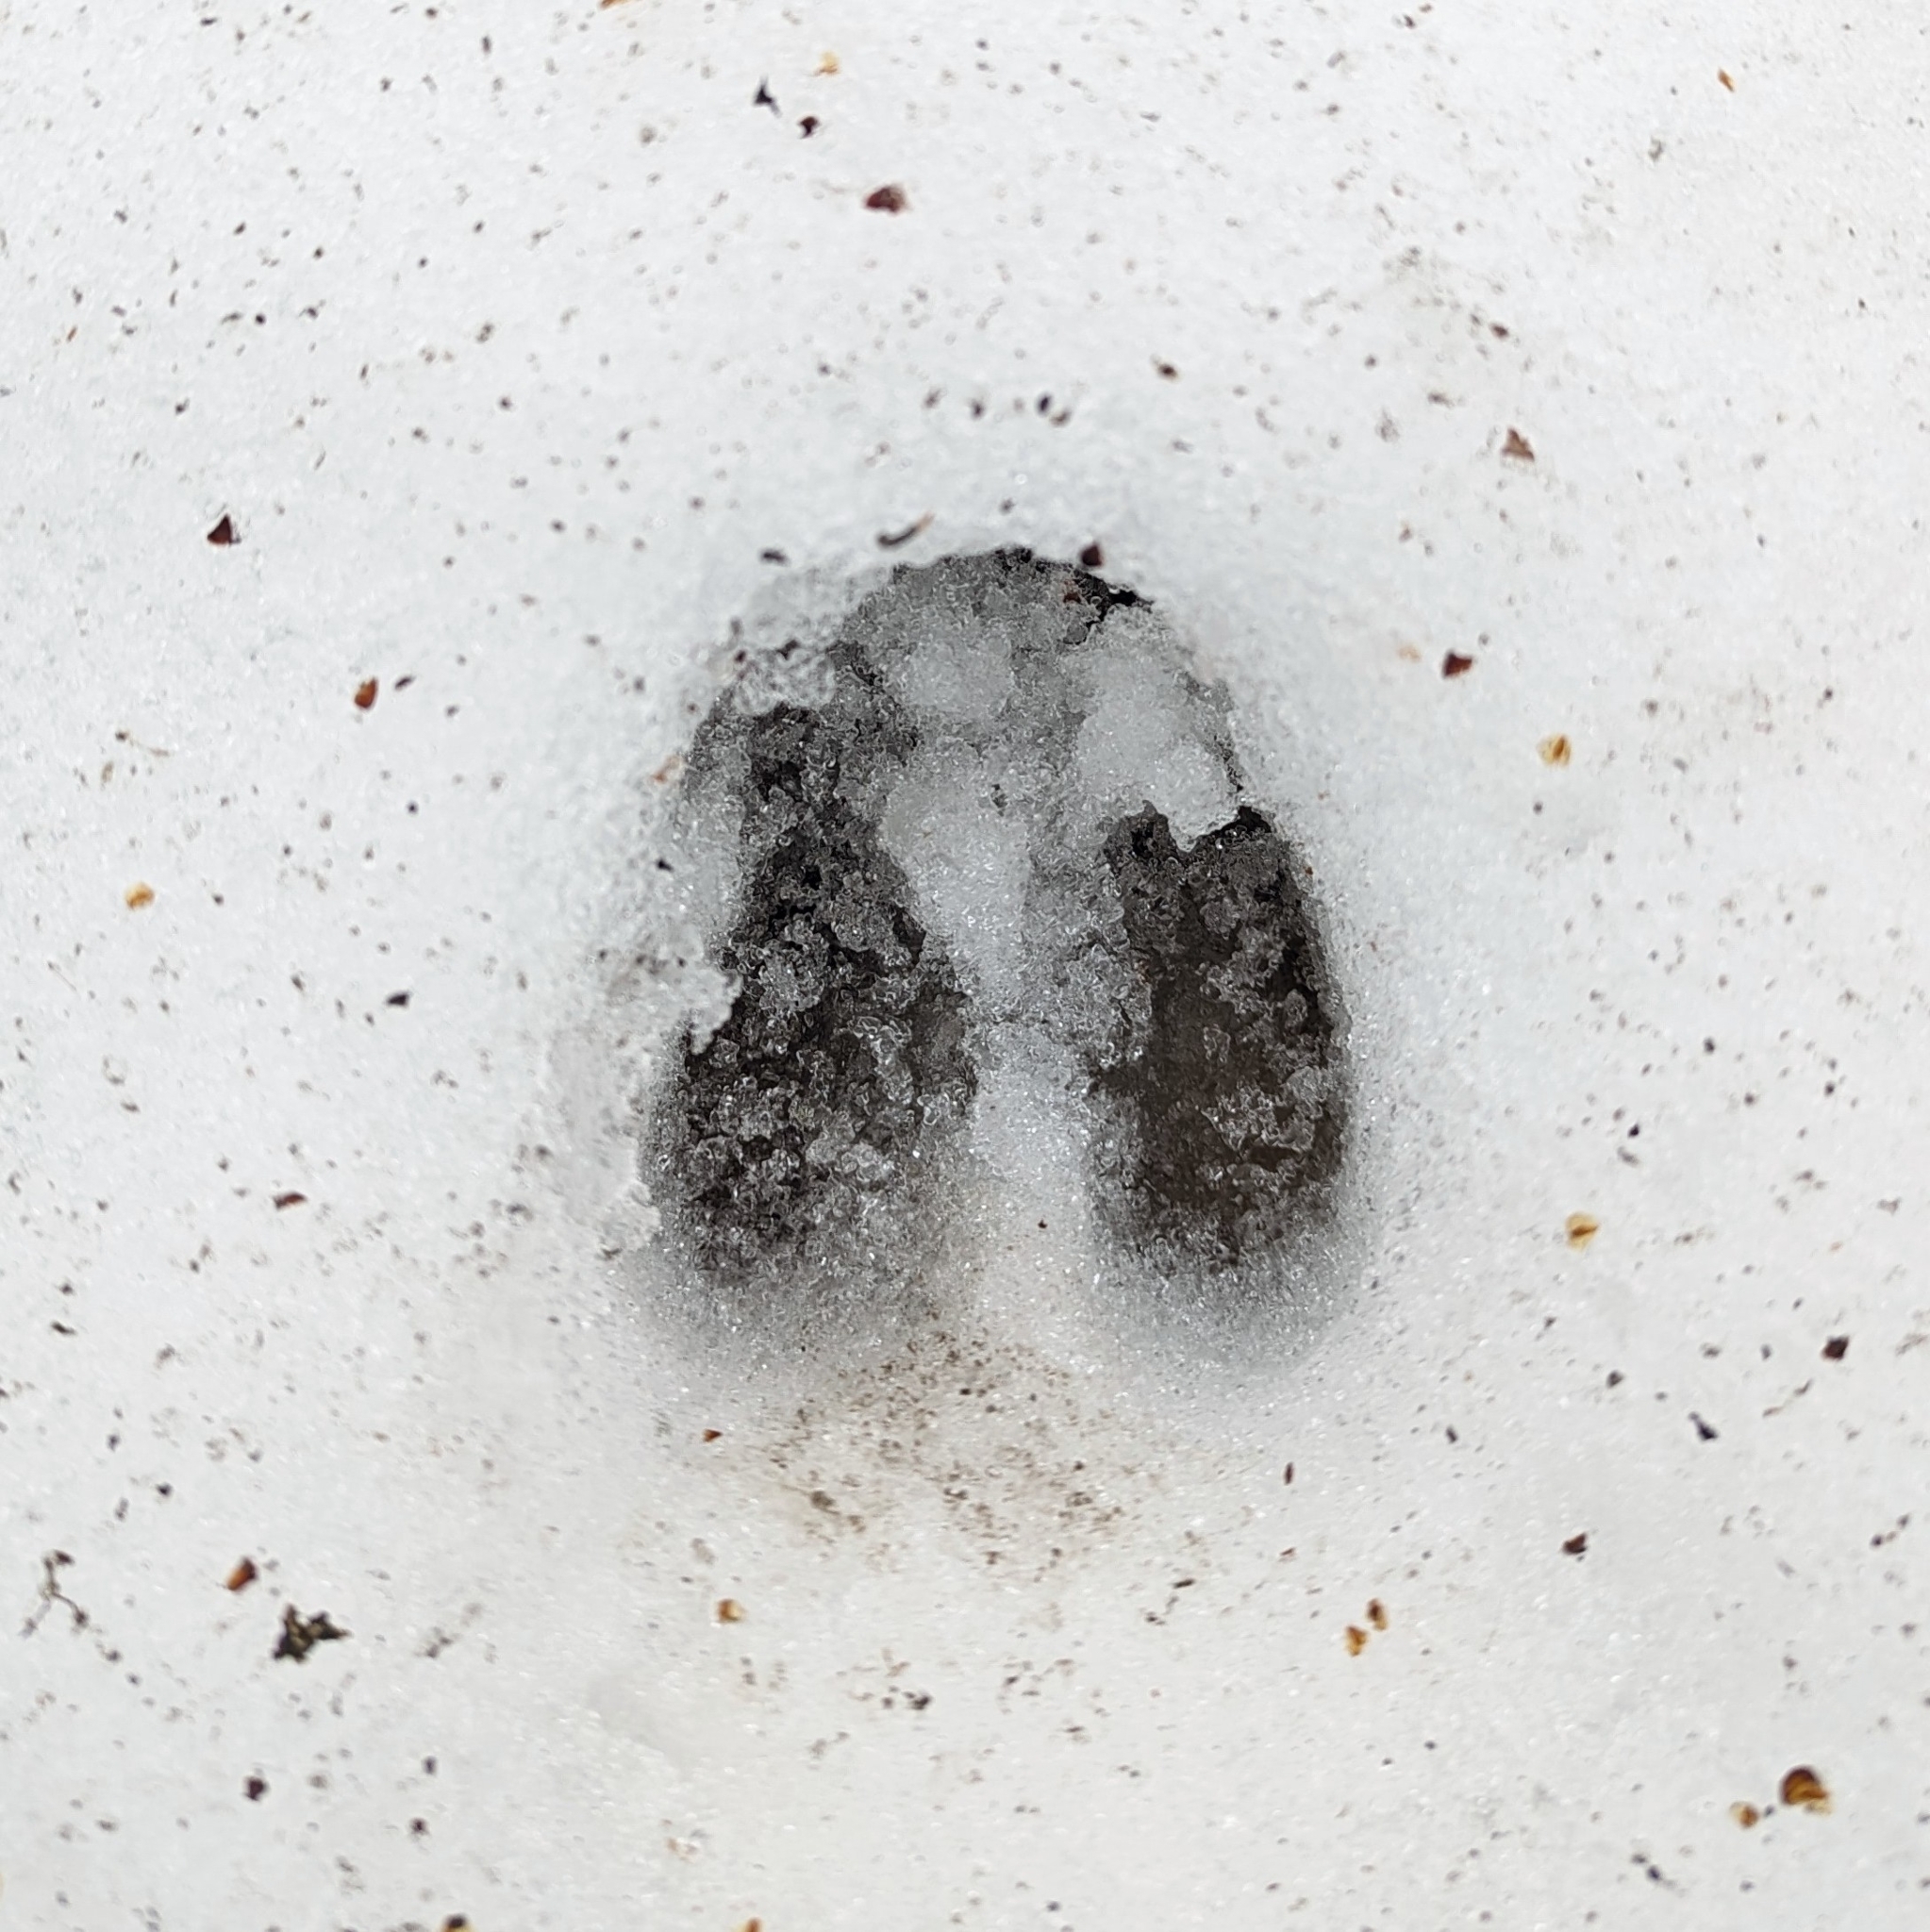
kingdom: Animalia
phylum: Chordata
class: Mammalia
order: Artiodactyla
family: Cervidae
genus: Odocoileus
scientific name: Odocoileus virginianus
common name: White-tailed deer
